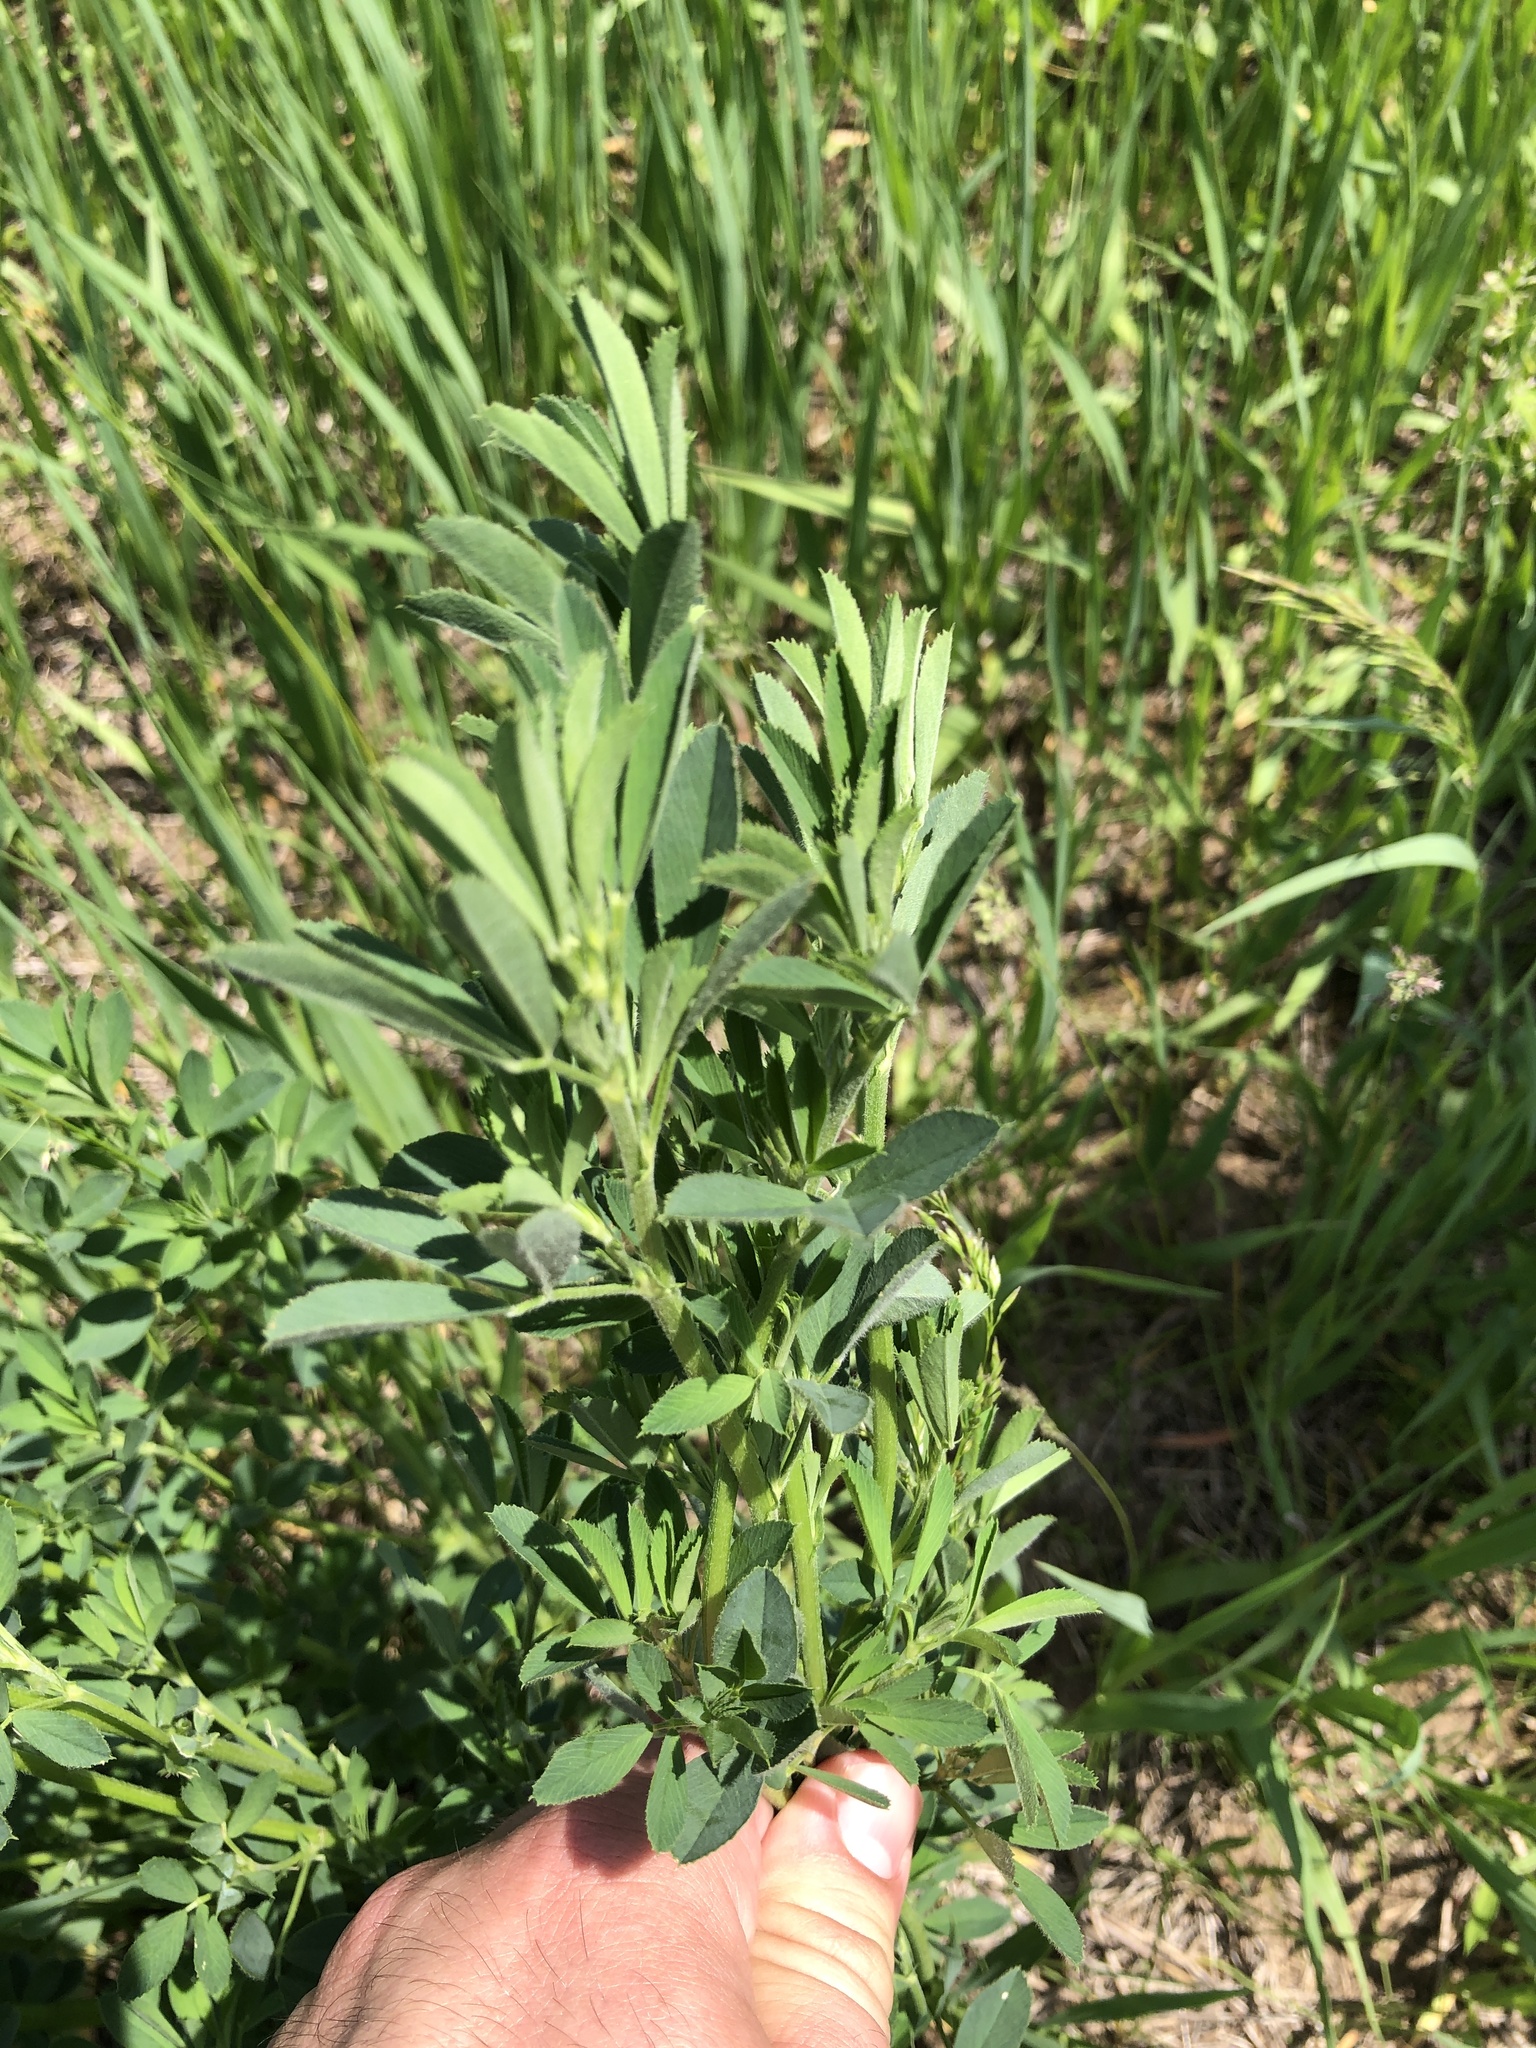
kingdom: Plantae
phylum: Tracheophyta
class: Magnoliopsida
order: Fabales
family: Fabaceae
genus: Medicago
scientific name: Medicago sativa
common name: Alfalfa
